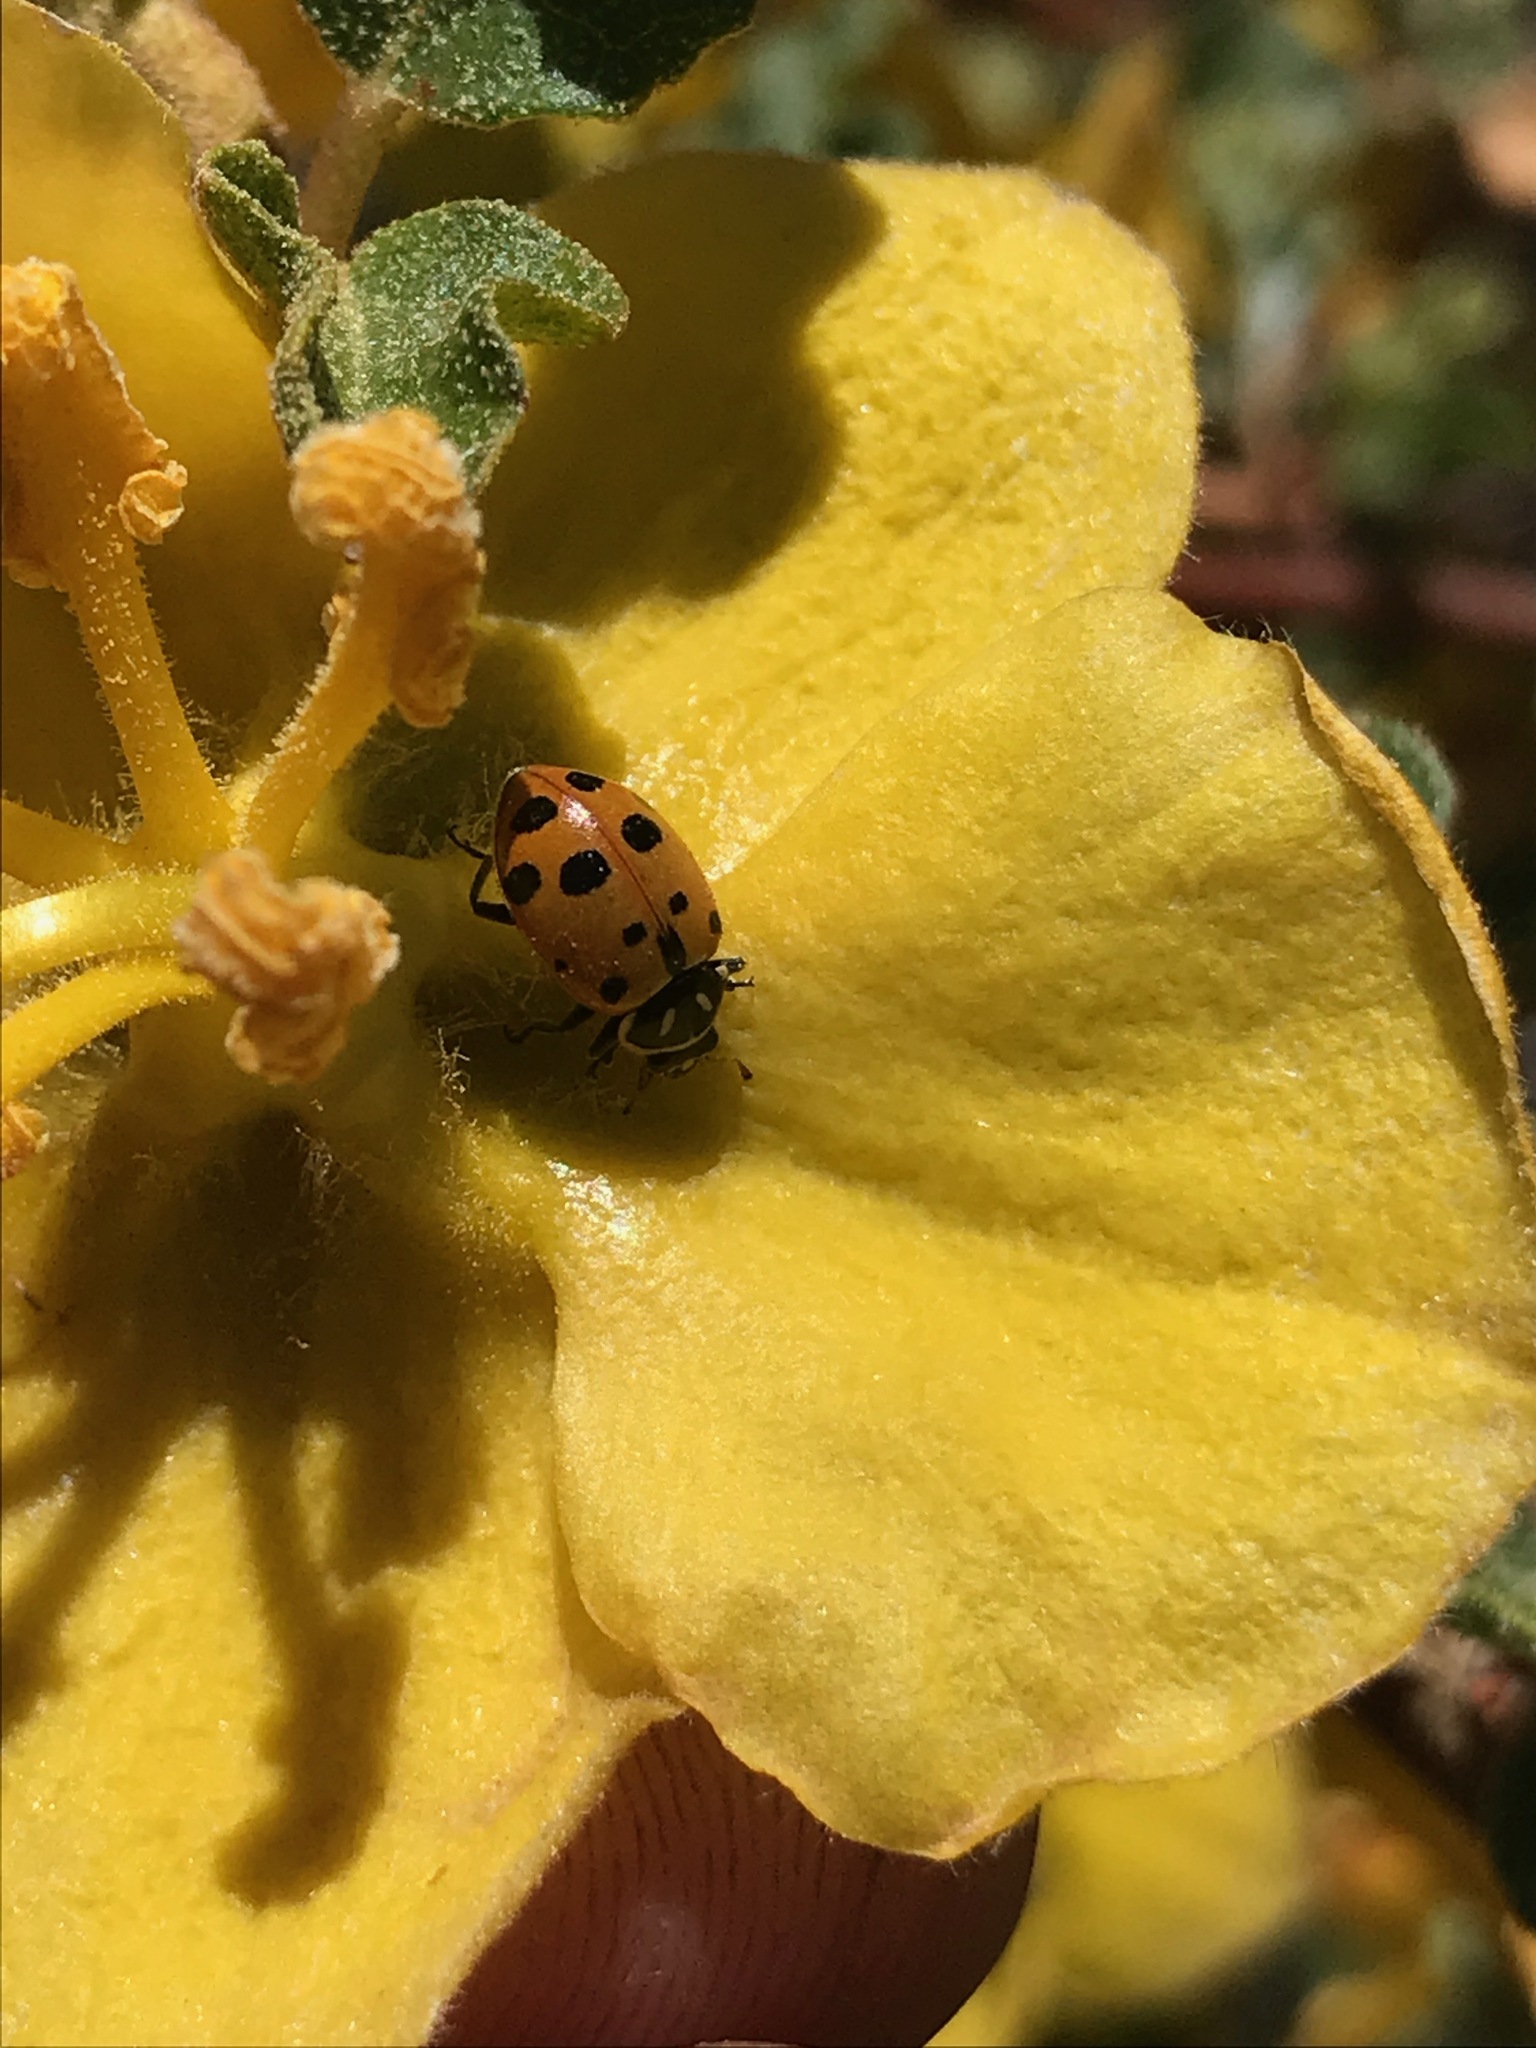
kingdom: Animalia
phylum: Arthropoda
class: Insecta
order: Coleoptera
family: Coccinellidae
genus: Hippodamia
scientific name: Hippodamia convergens
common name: Convergent lady beetle
